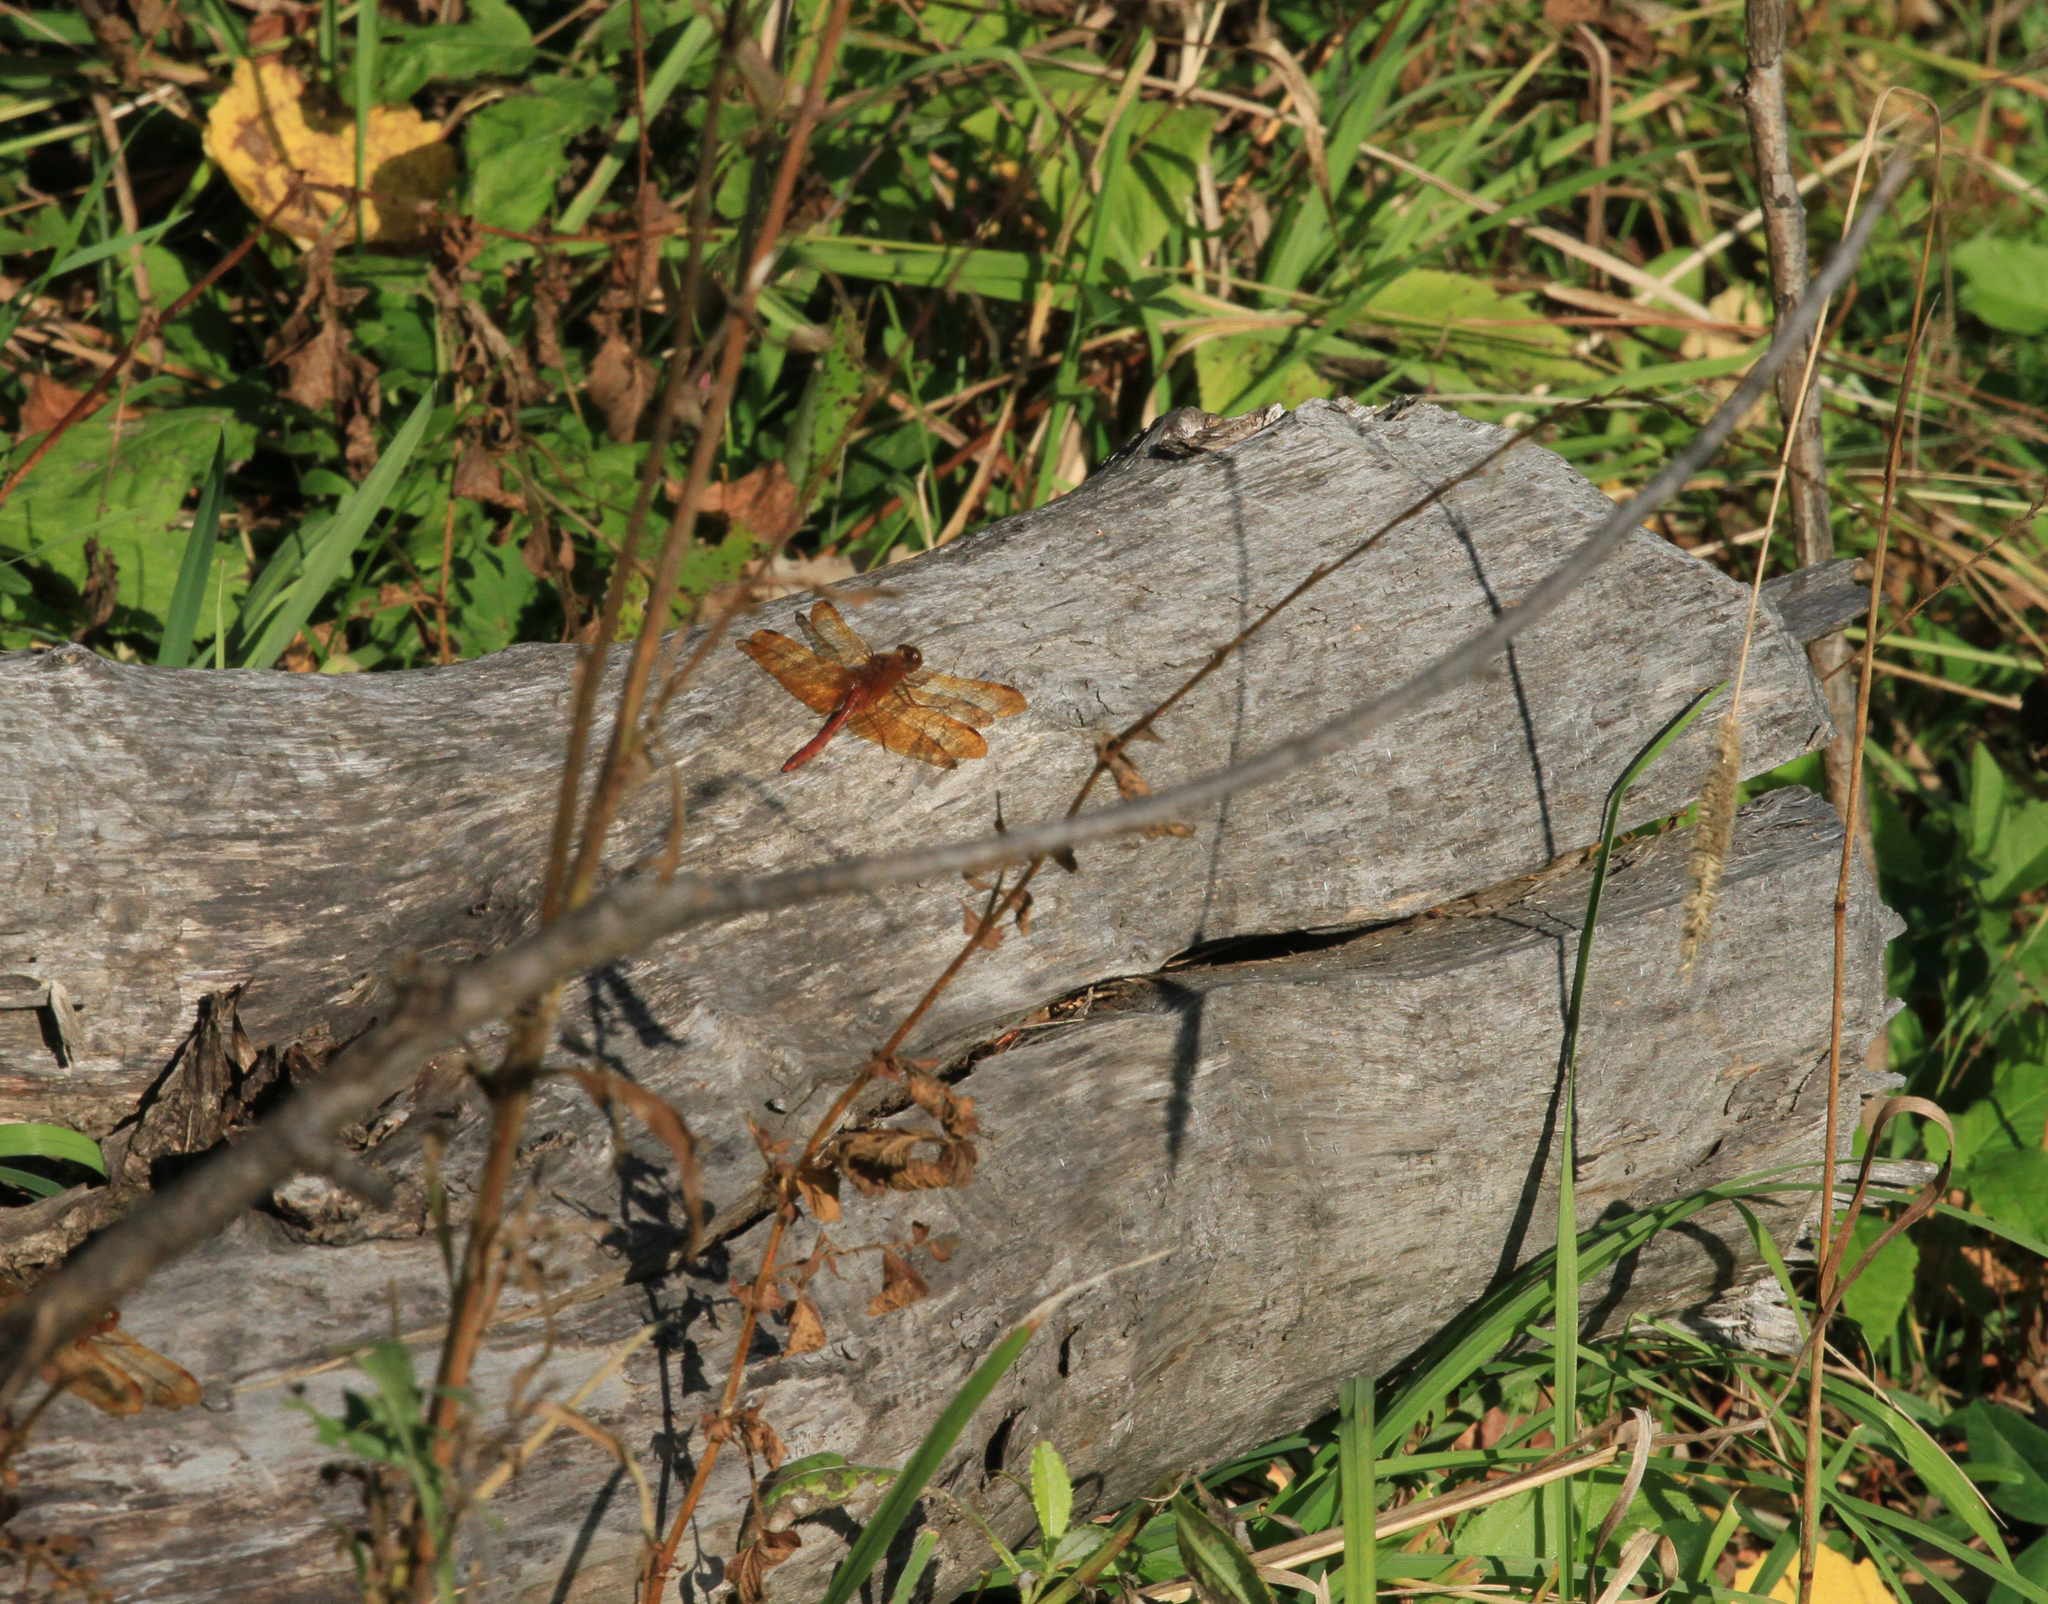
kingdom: Animalia
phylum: Arthropoda
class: Insecta
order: Odonata
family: Libellulidae
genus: Sympetrum
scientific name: Sympetrum croceolum
